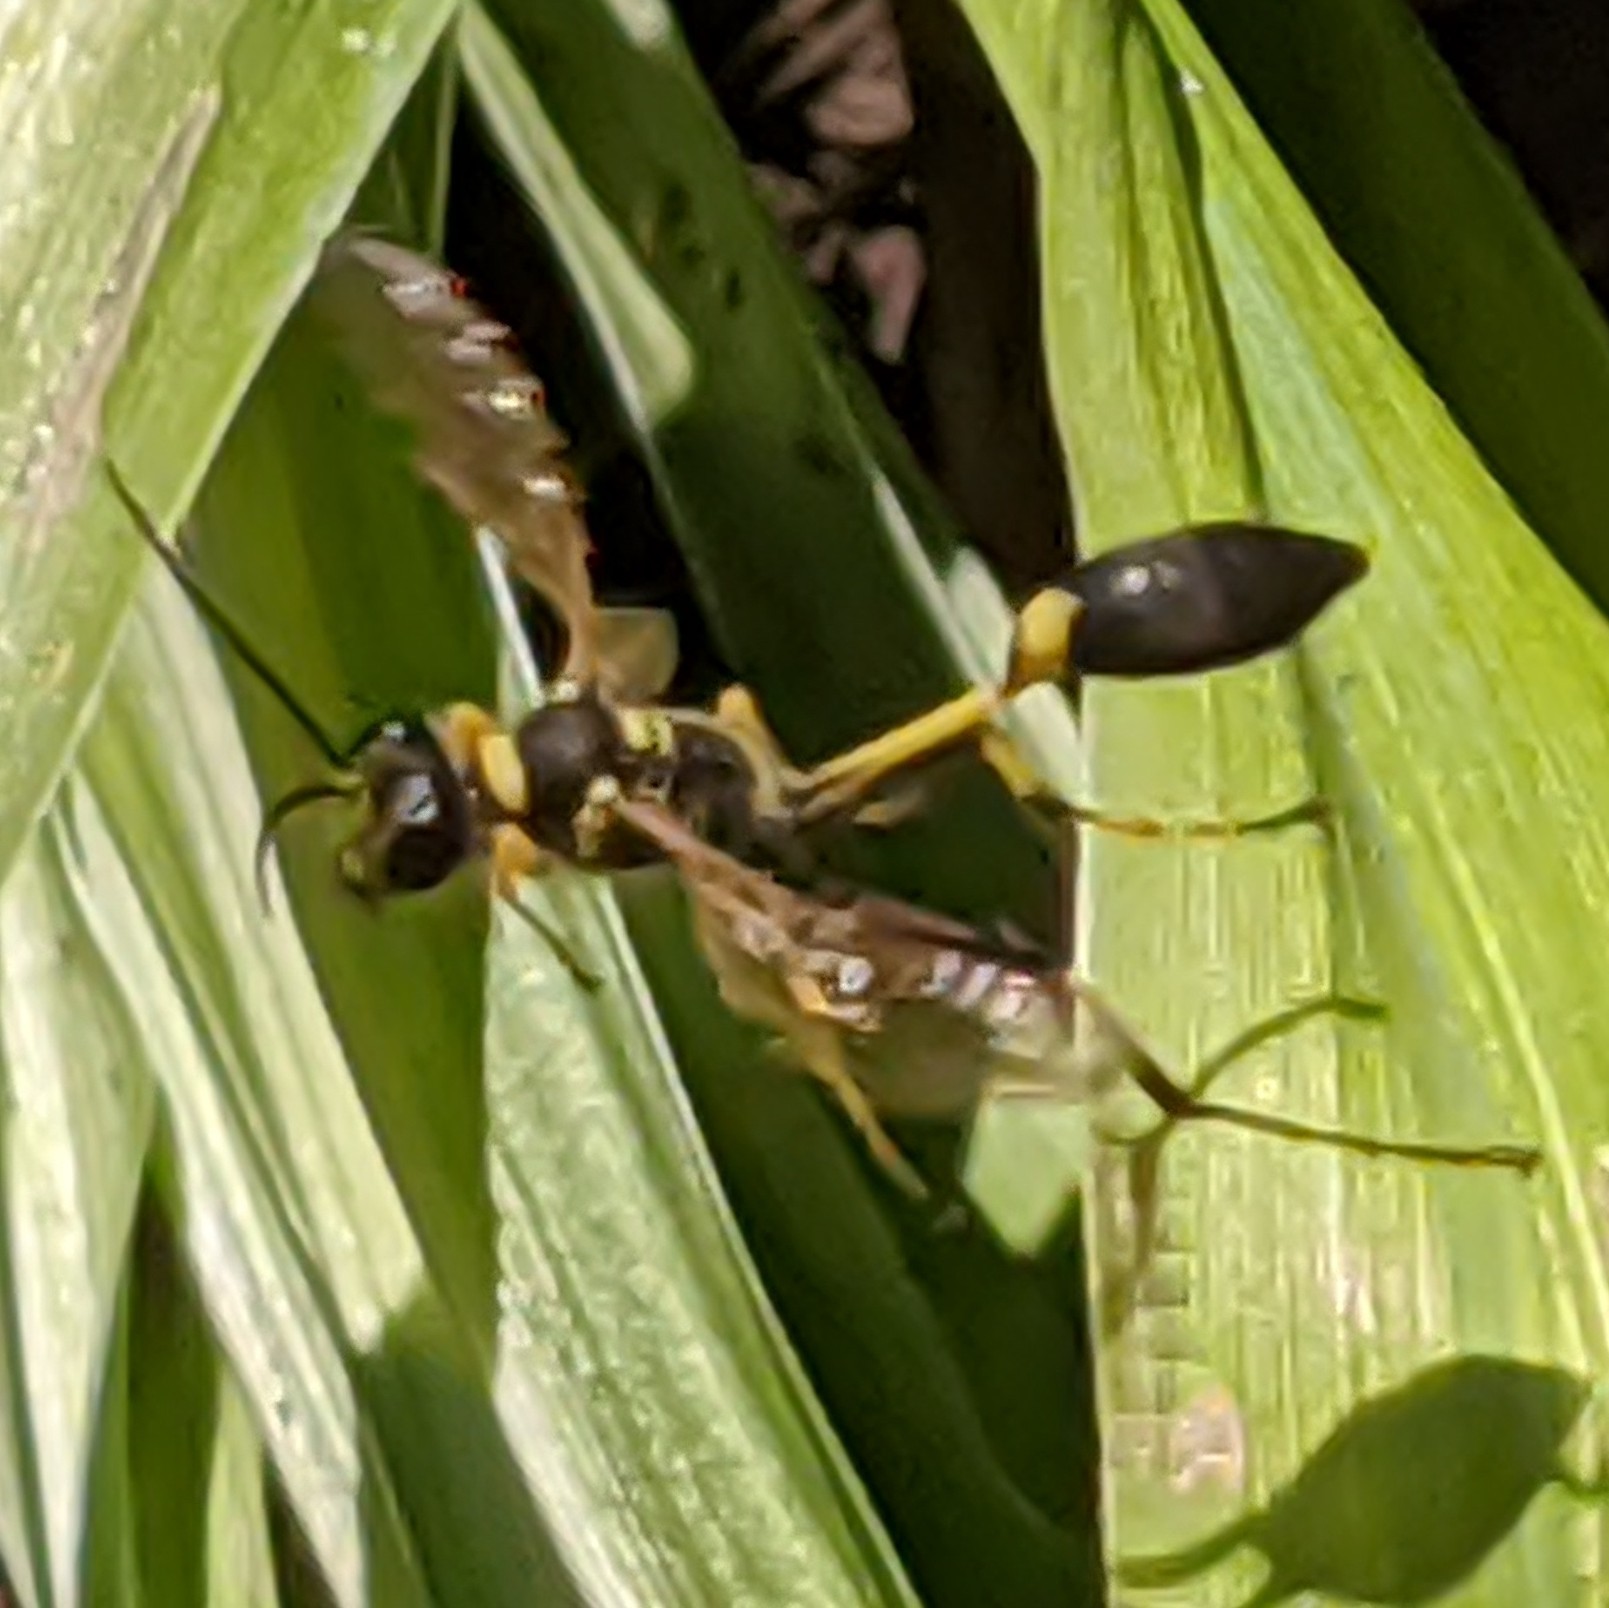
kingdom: Animalia
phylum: Arthropoda
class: Insecta
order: Hymenoptera
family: Sphecidae
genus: Sceliphron
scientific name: Sceliphron caementarium
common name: Mud dauber
